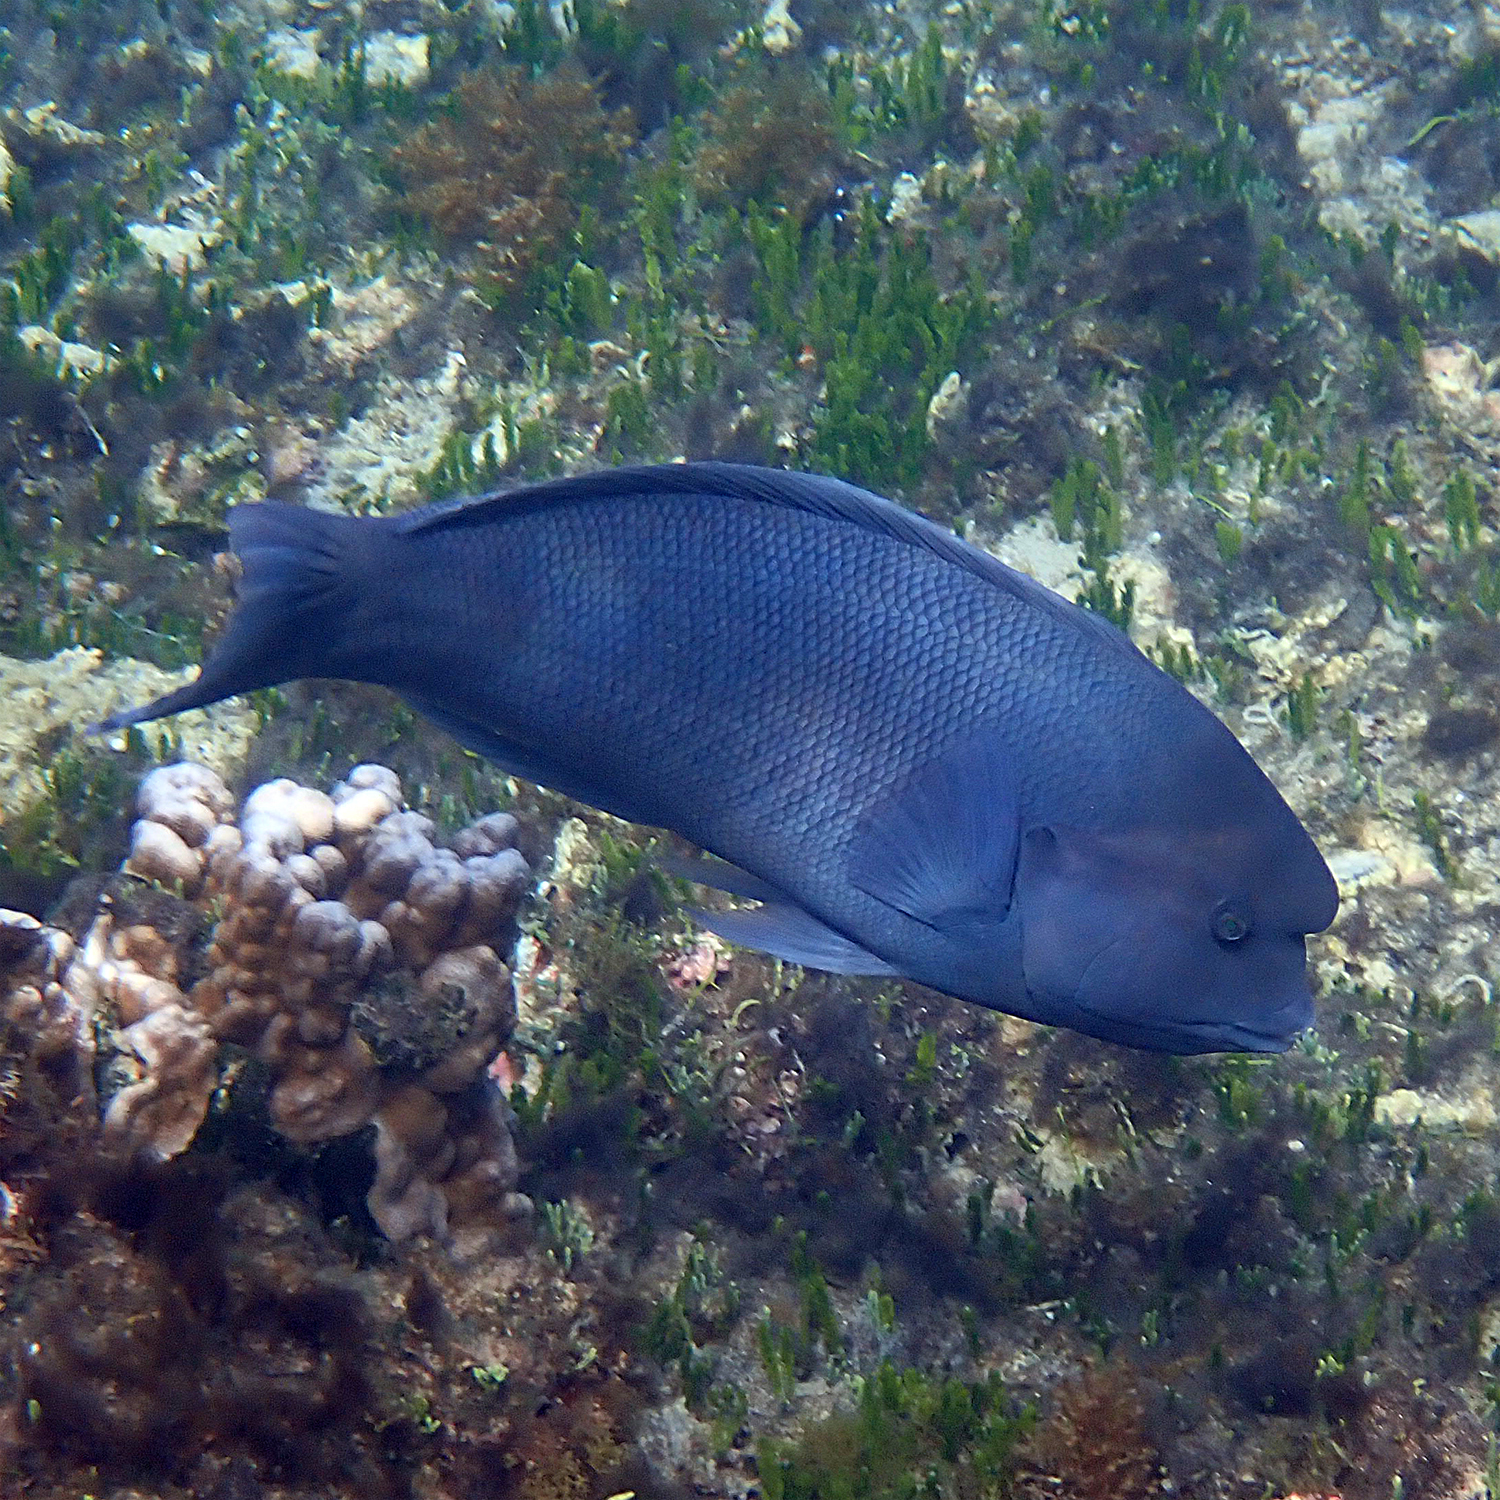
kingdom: Animalia
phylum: Chordata
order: Perciformes
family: Labridae
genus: Coris
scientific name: Coris bulbifrons
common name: Doubleheader
